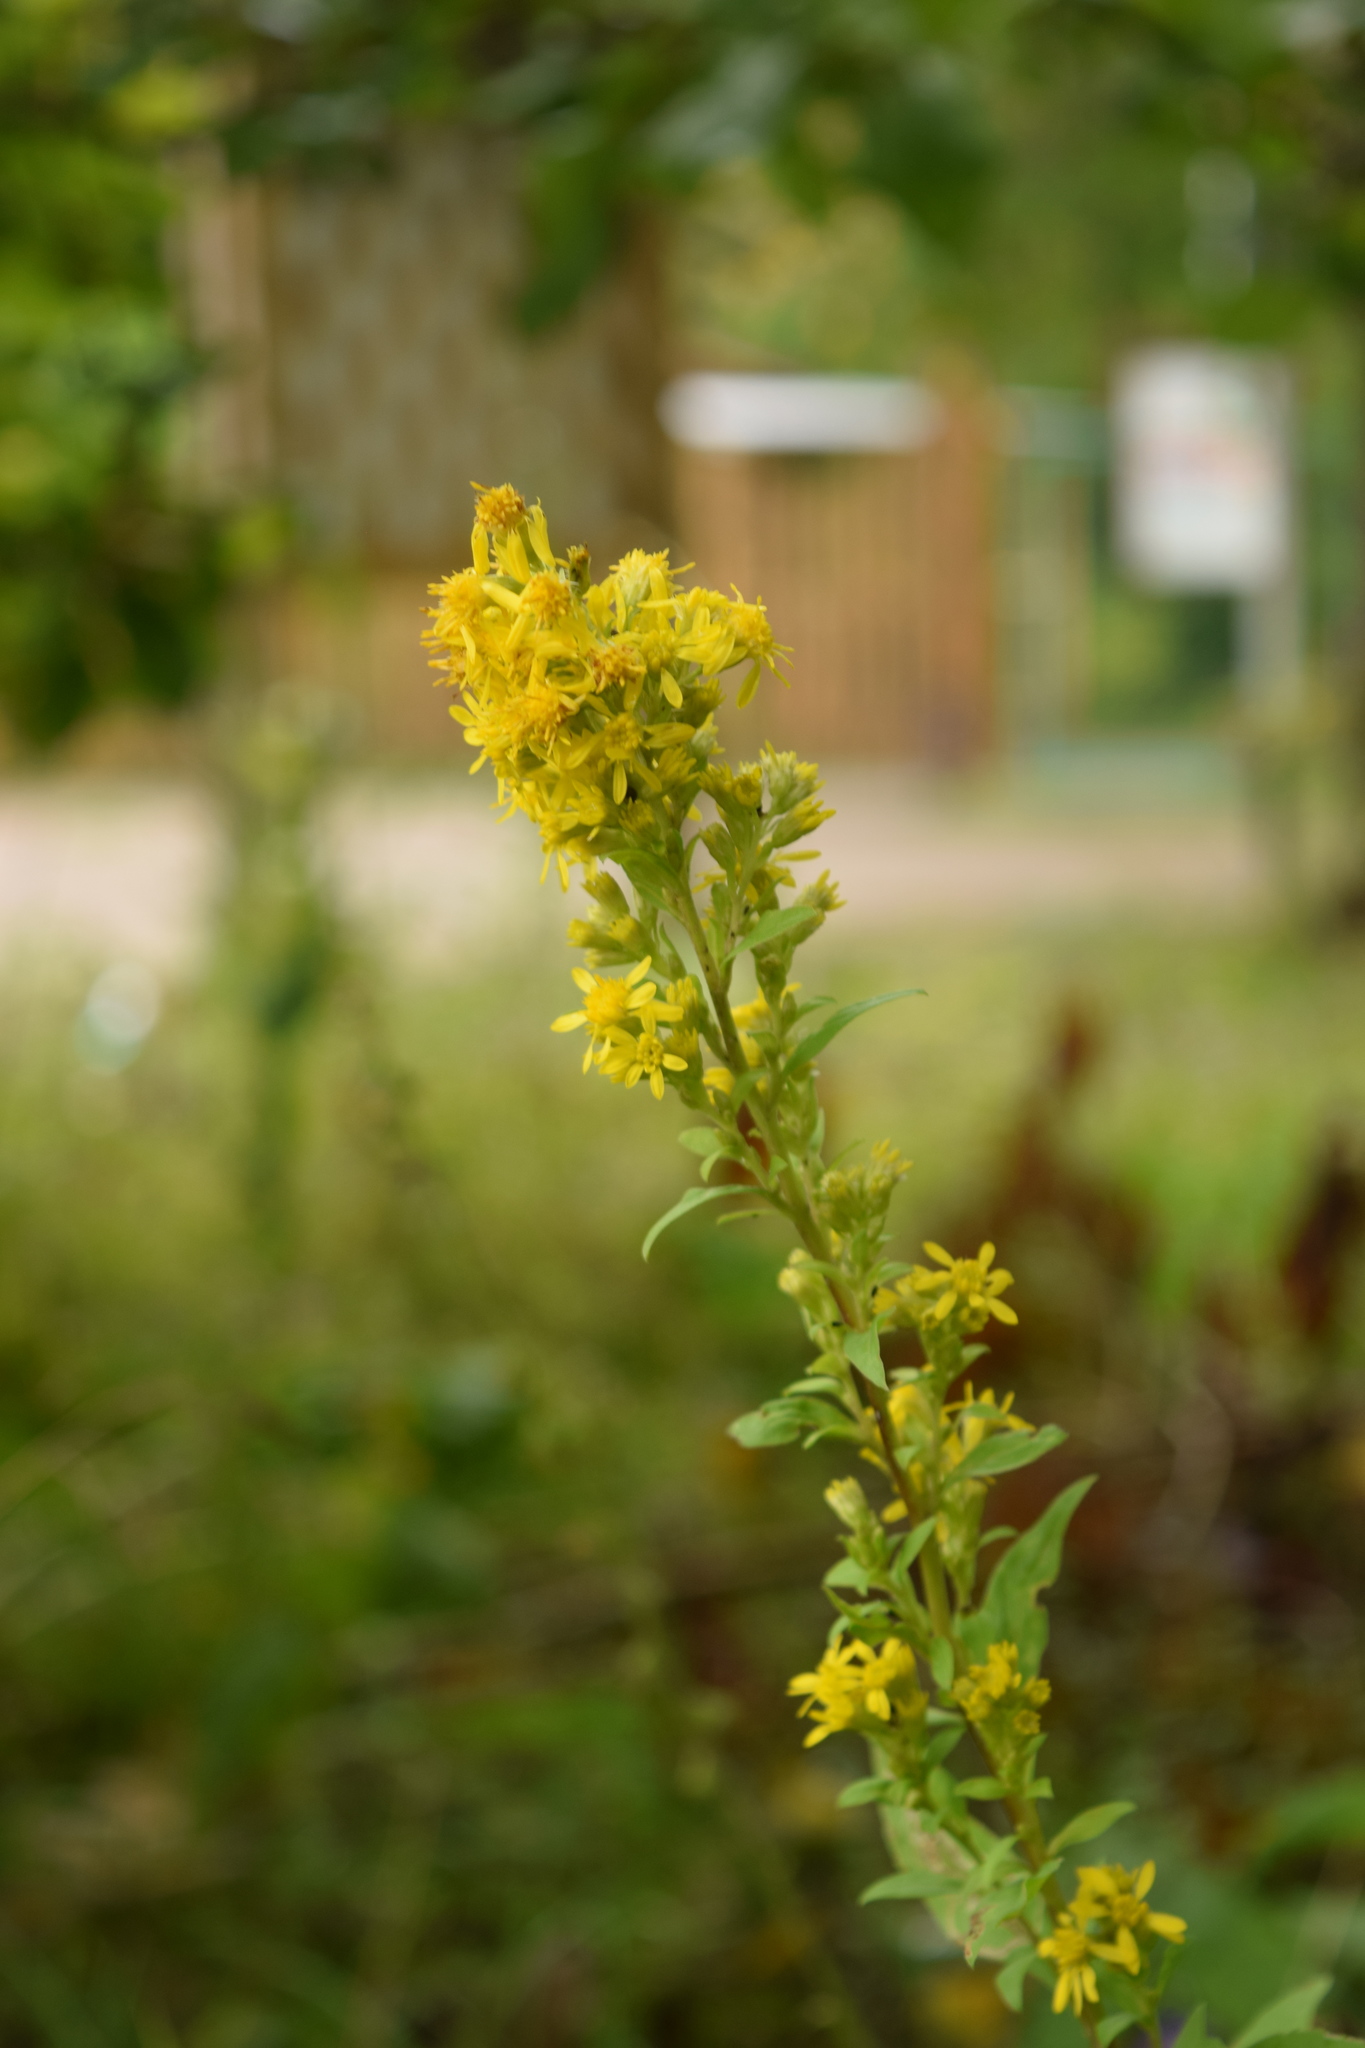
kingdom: Plantae
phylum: Tracheophyta
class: Magnoliopsida
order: Asterales
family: Asteraceae
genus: Solidago
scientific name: Solidago virgaurea
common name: Goldenrod
